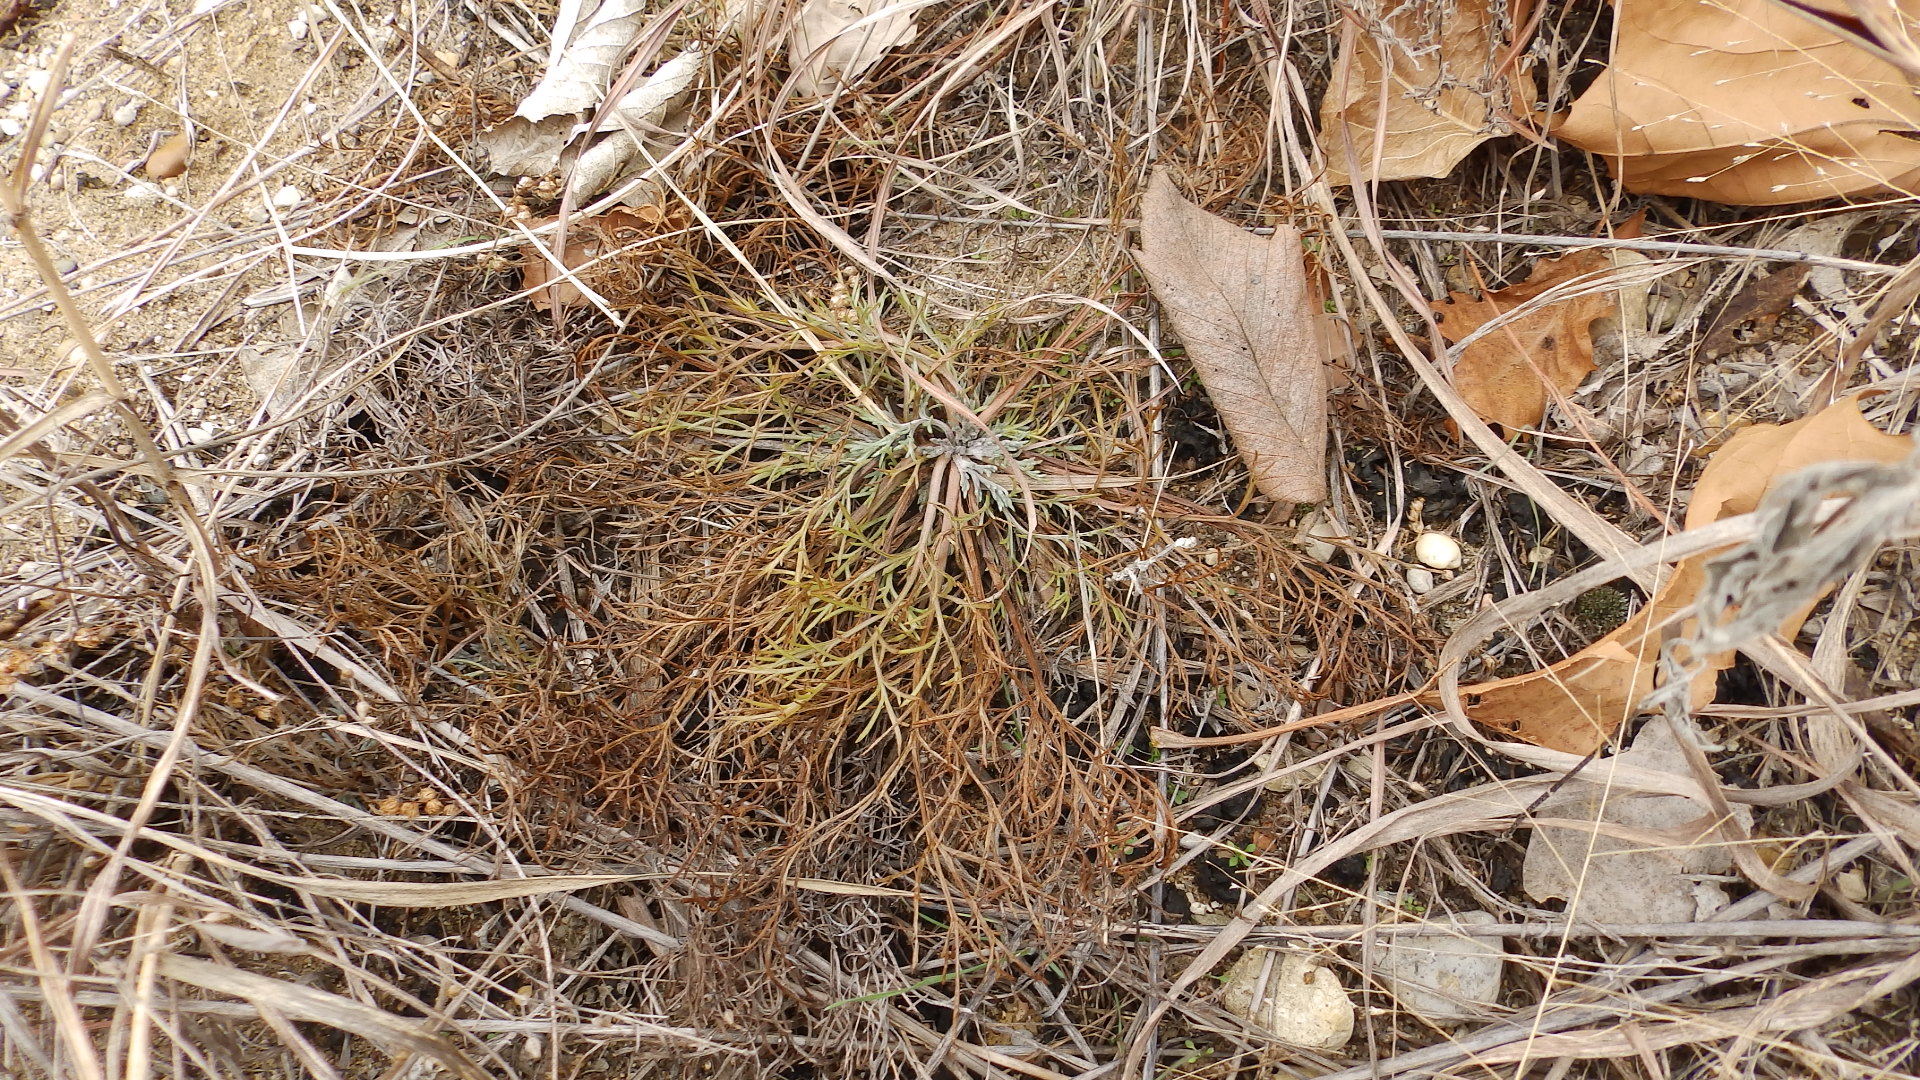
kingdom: Plantae
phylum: Tracheophyta
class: Magnoliopsida
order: Asterales
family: Asteraceae
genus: Artemisia
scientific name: Artemisia campestris
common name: Field wormwood
